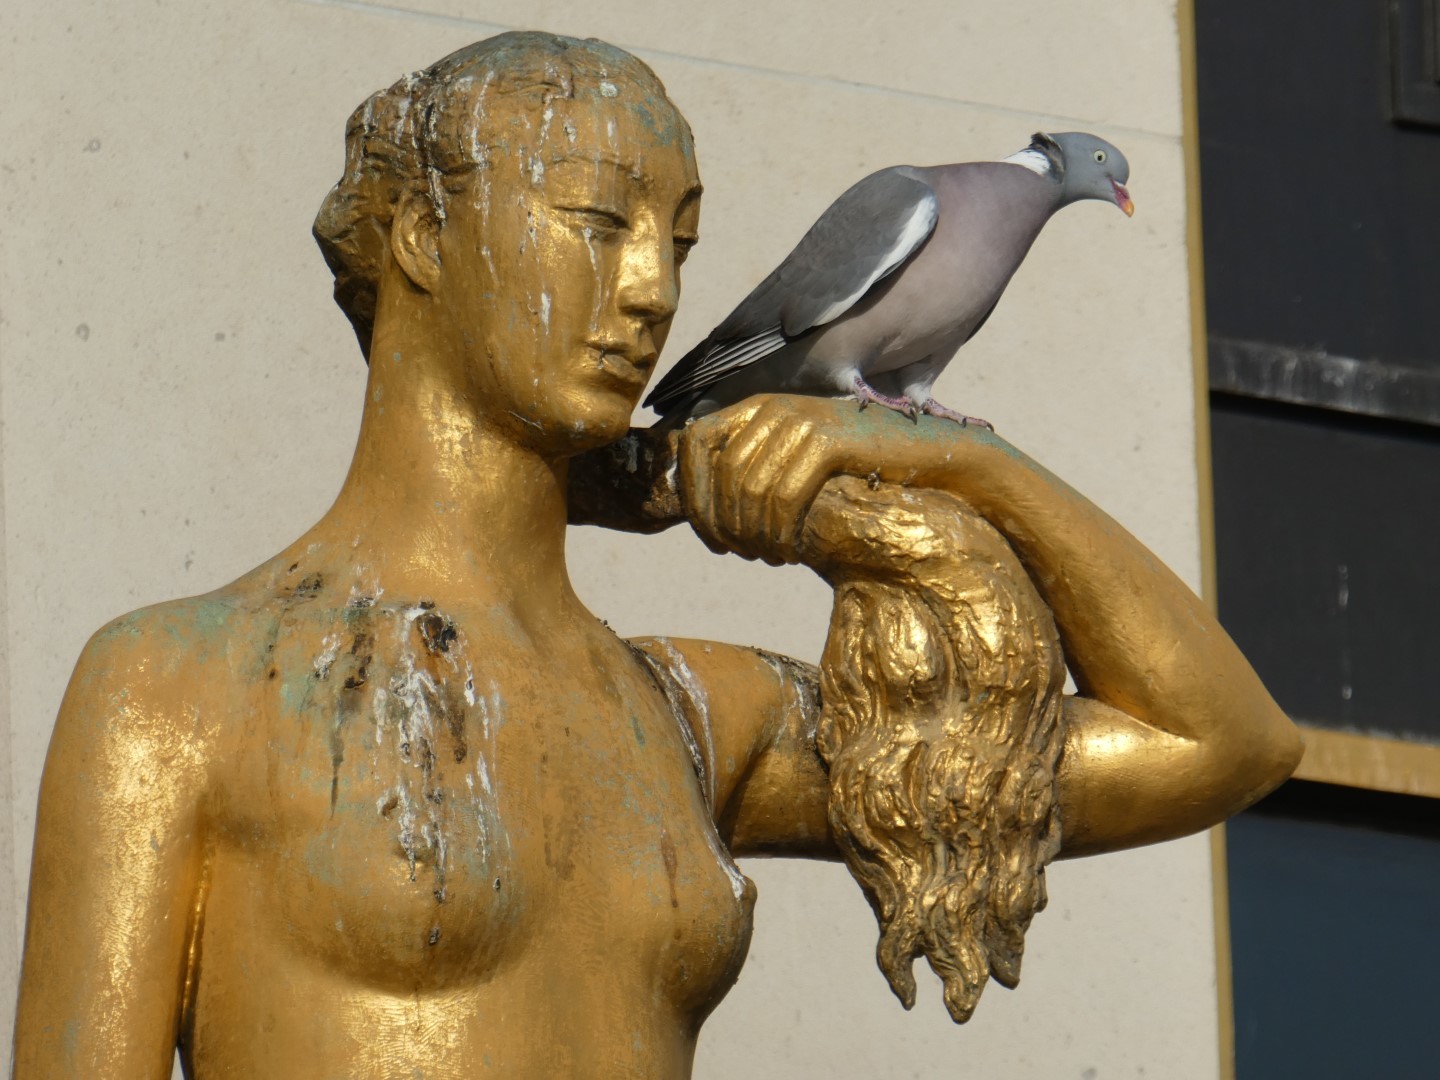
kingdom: Animalia
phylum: Chordata
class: Aves
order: Columbiformes
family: Columbidae
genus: Columba
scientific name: Columba palumbus
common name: Common wood pigeon
